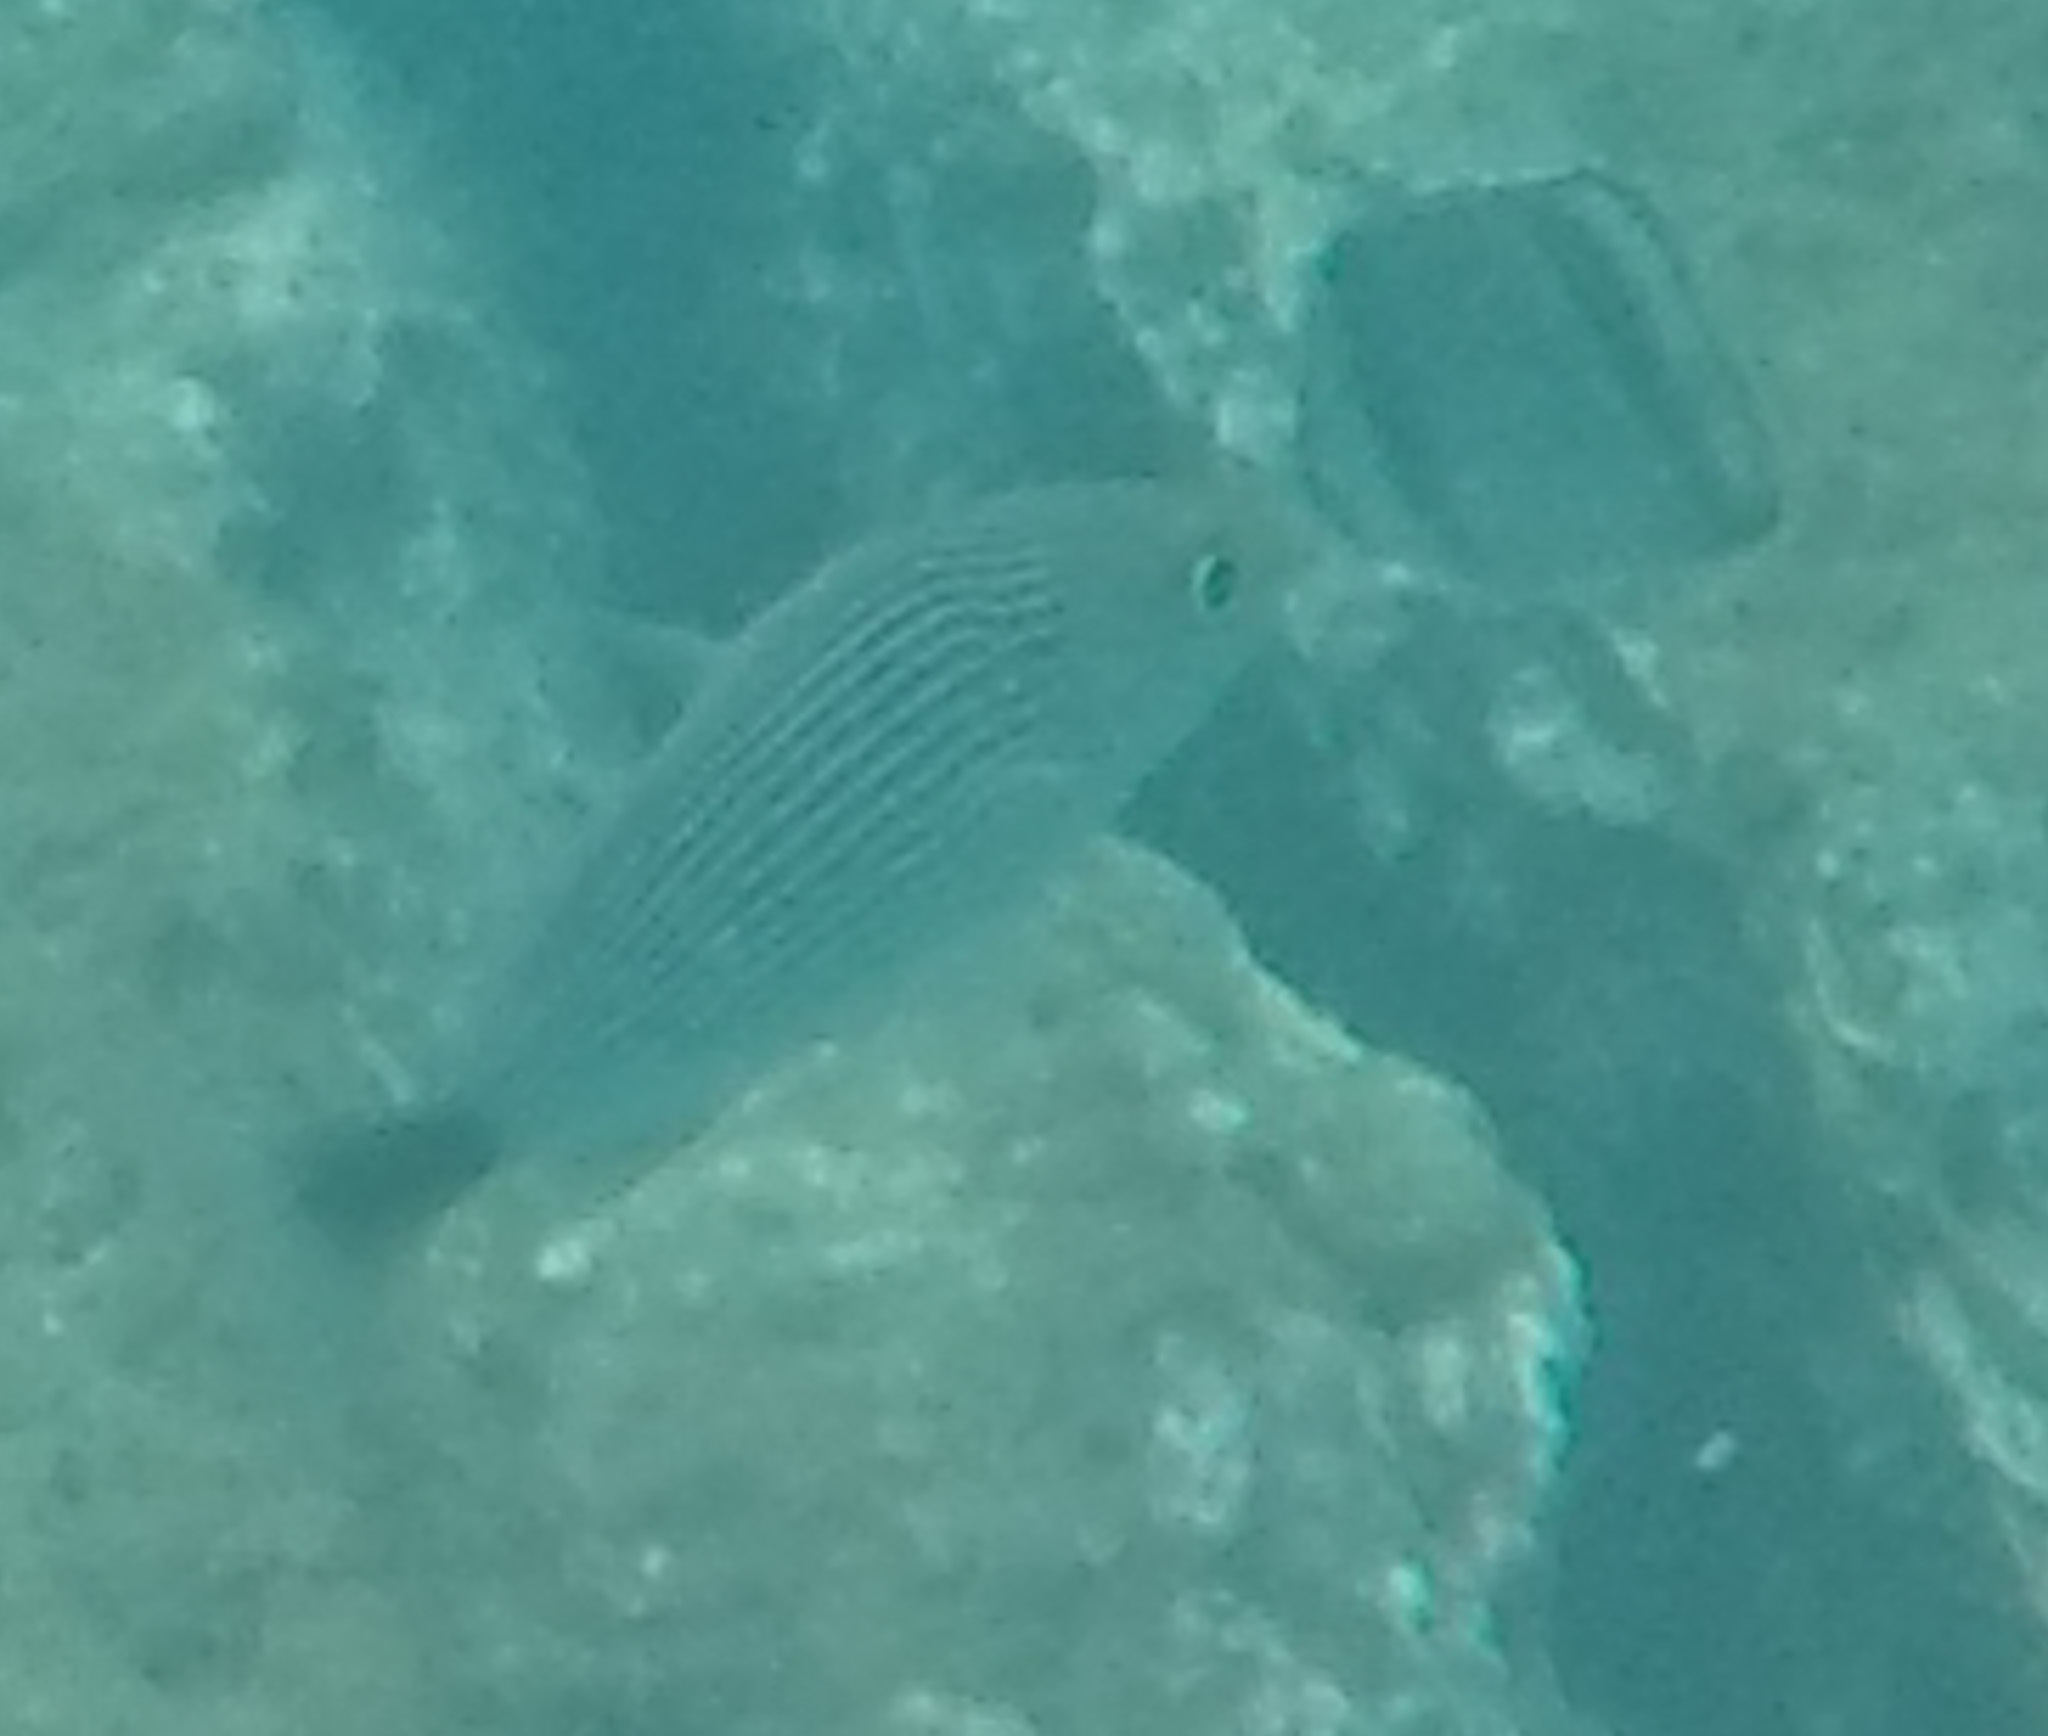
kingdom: Animalia
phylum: Chordata
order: Perciformes
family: Haemulidae
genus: Haemulon
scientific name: Haemulon maculicauda
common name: Spottail grunt
